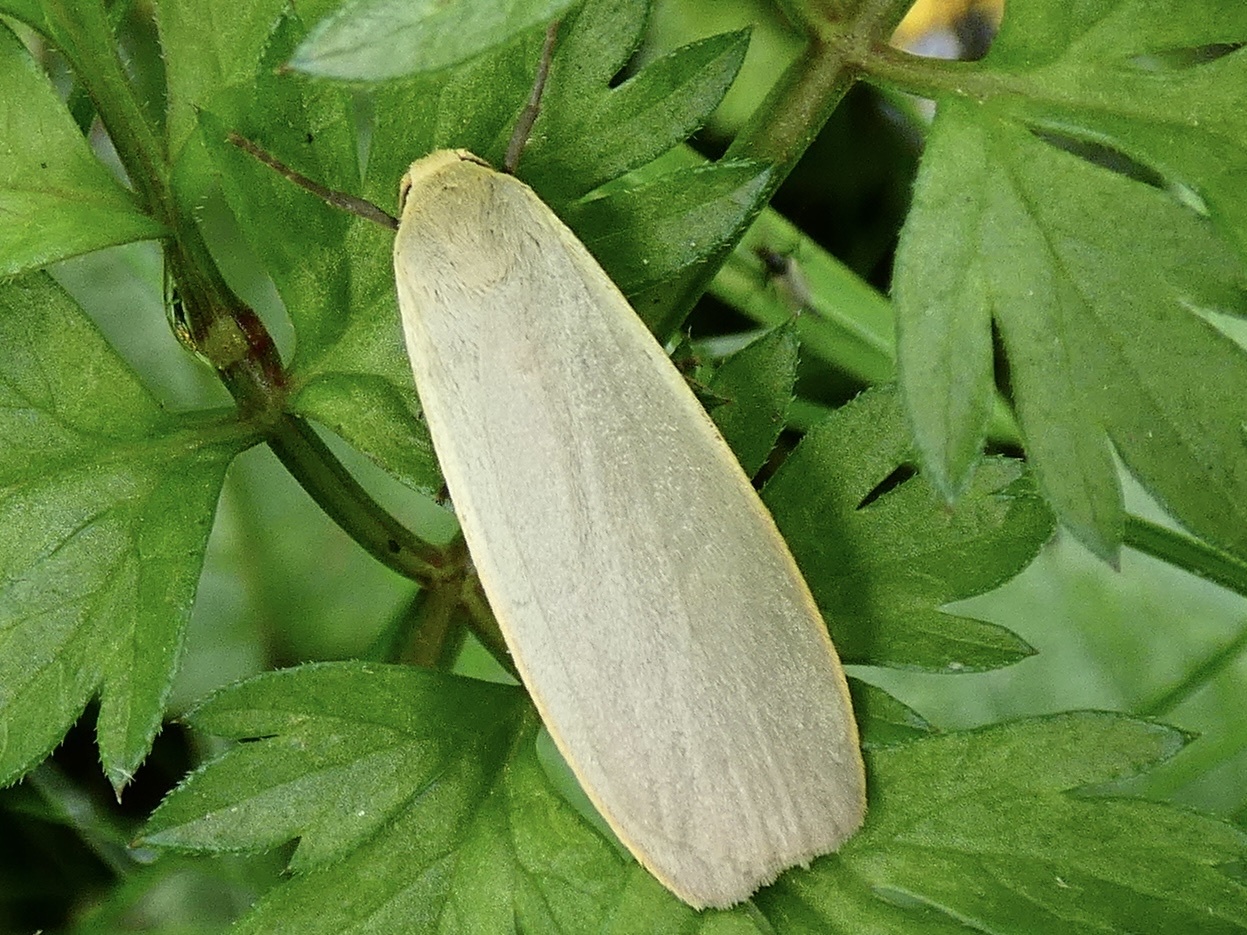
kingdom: Animalia
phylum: Arthropoda
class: Insecta
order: Lepidoptera
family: Erebidae
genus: Collita
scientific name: Collita griseola
